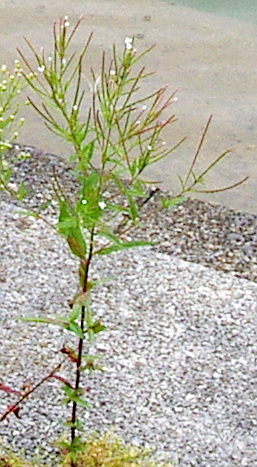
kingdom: Plantae
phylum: Tracheophyta
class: Magnoliopsida
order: Myrtales
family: Onagraceae
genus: Epilobium
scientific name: Epilobium pseudorubescens
